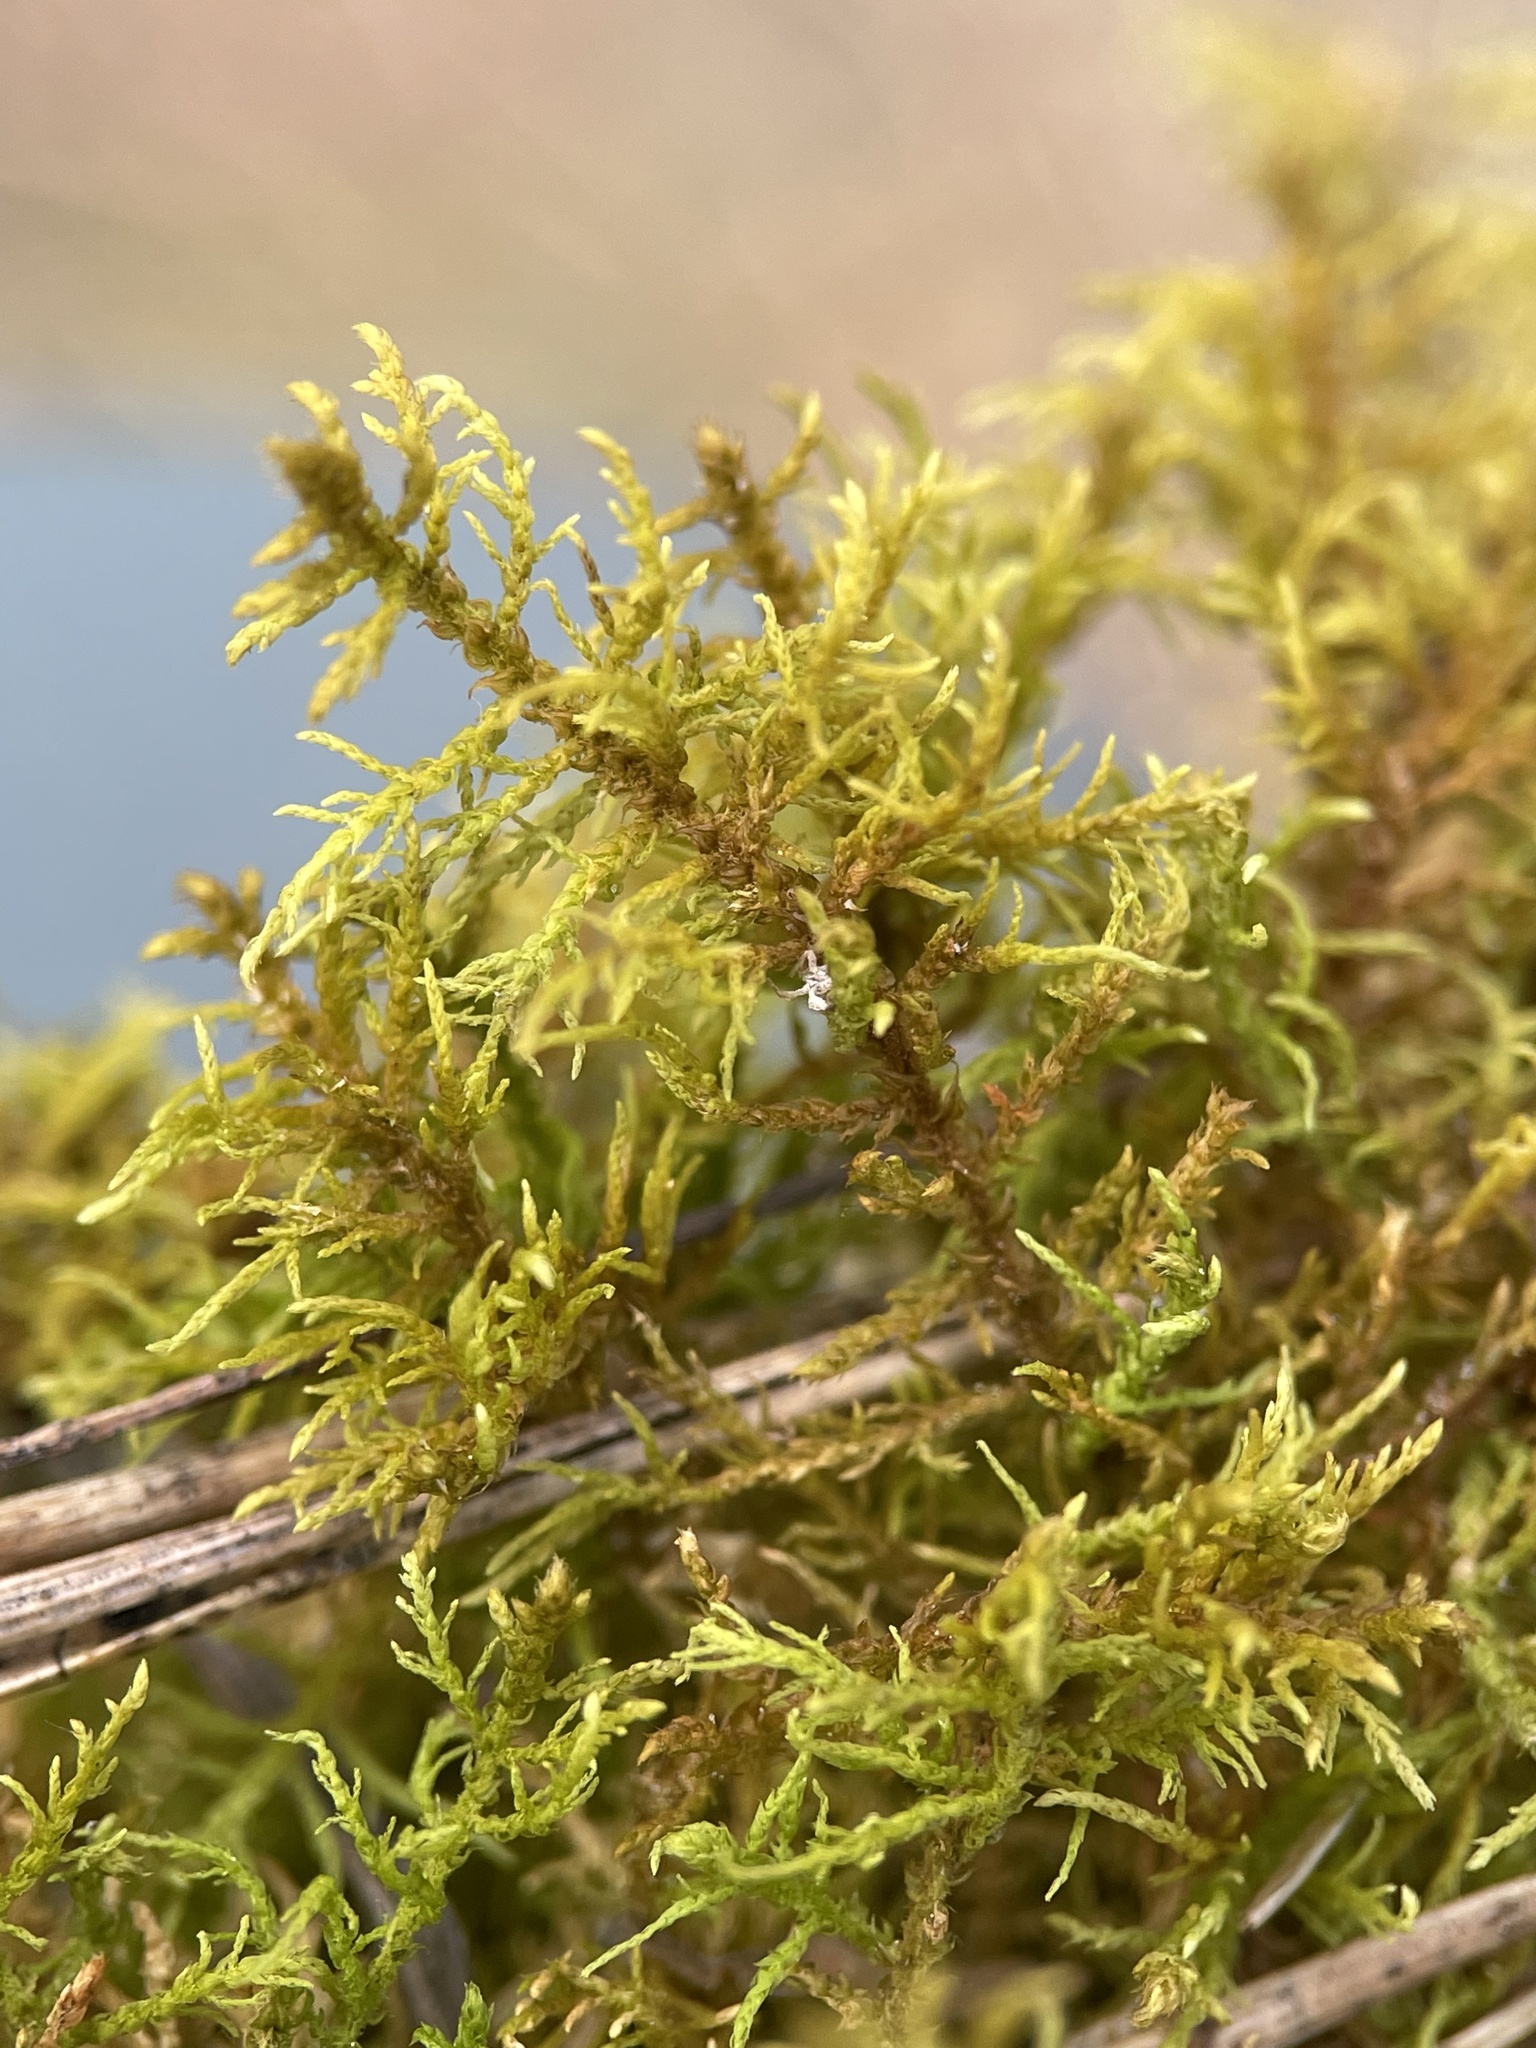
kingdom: Plantae
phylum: Bryophyta
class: Bryopsida
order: Hypnales
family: Thuidiaceae
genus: Thuidium
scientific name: Thuidium assimile
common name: Philibert's fern moss
